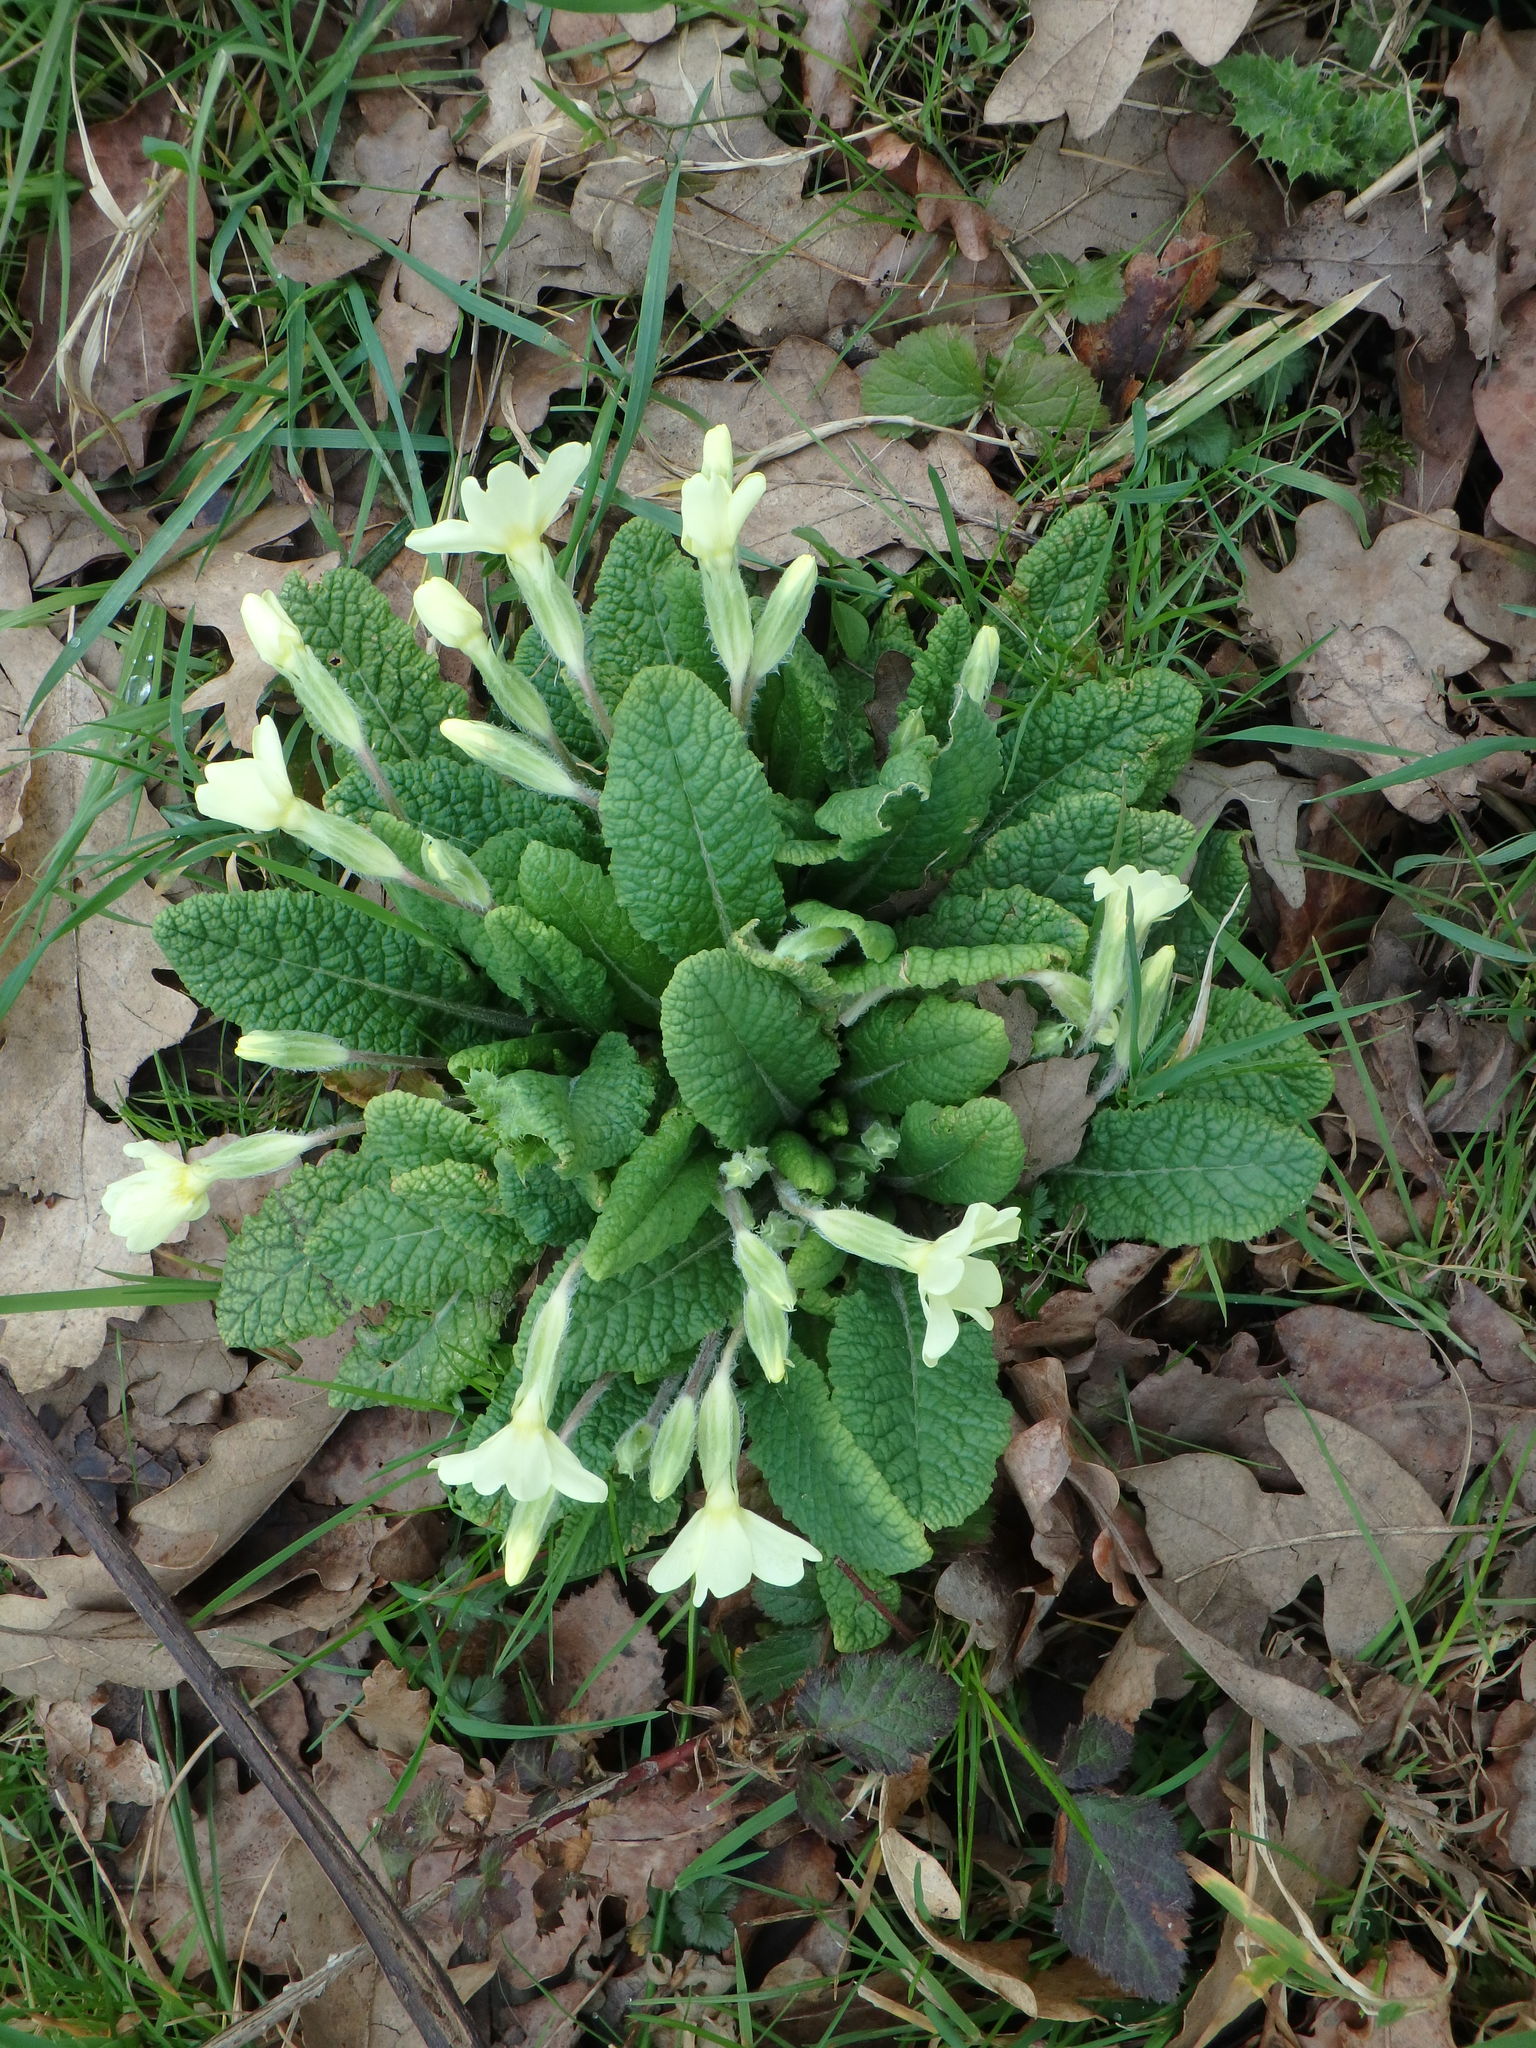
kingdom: Plantae
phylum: Tracheophyta
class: Magnoliopsida
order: Ericales
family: Primulaceae
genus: Primula
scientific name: Primula vulgaris
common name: Primrose
